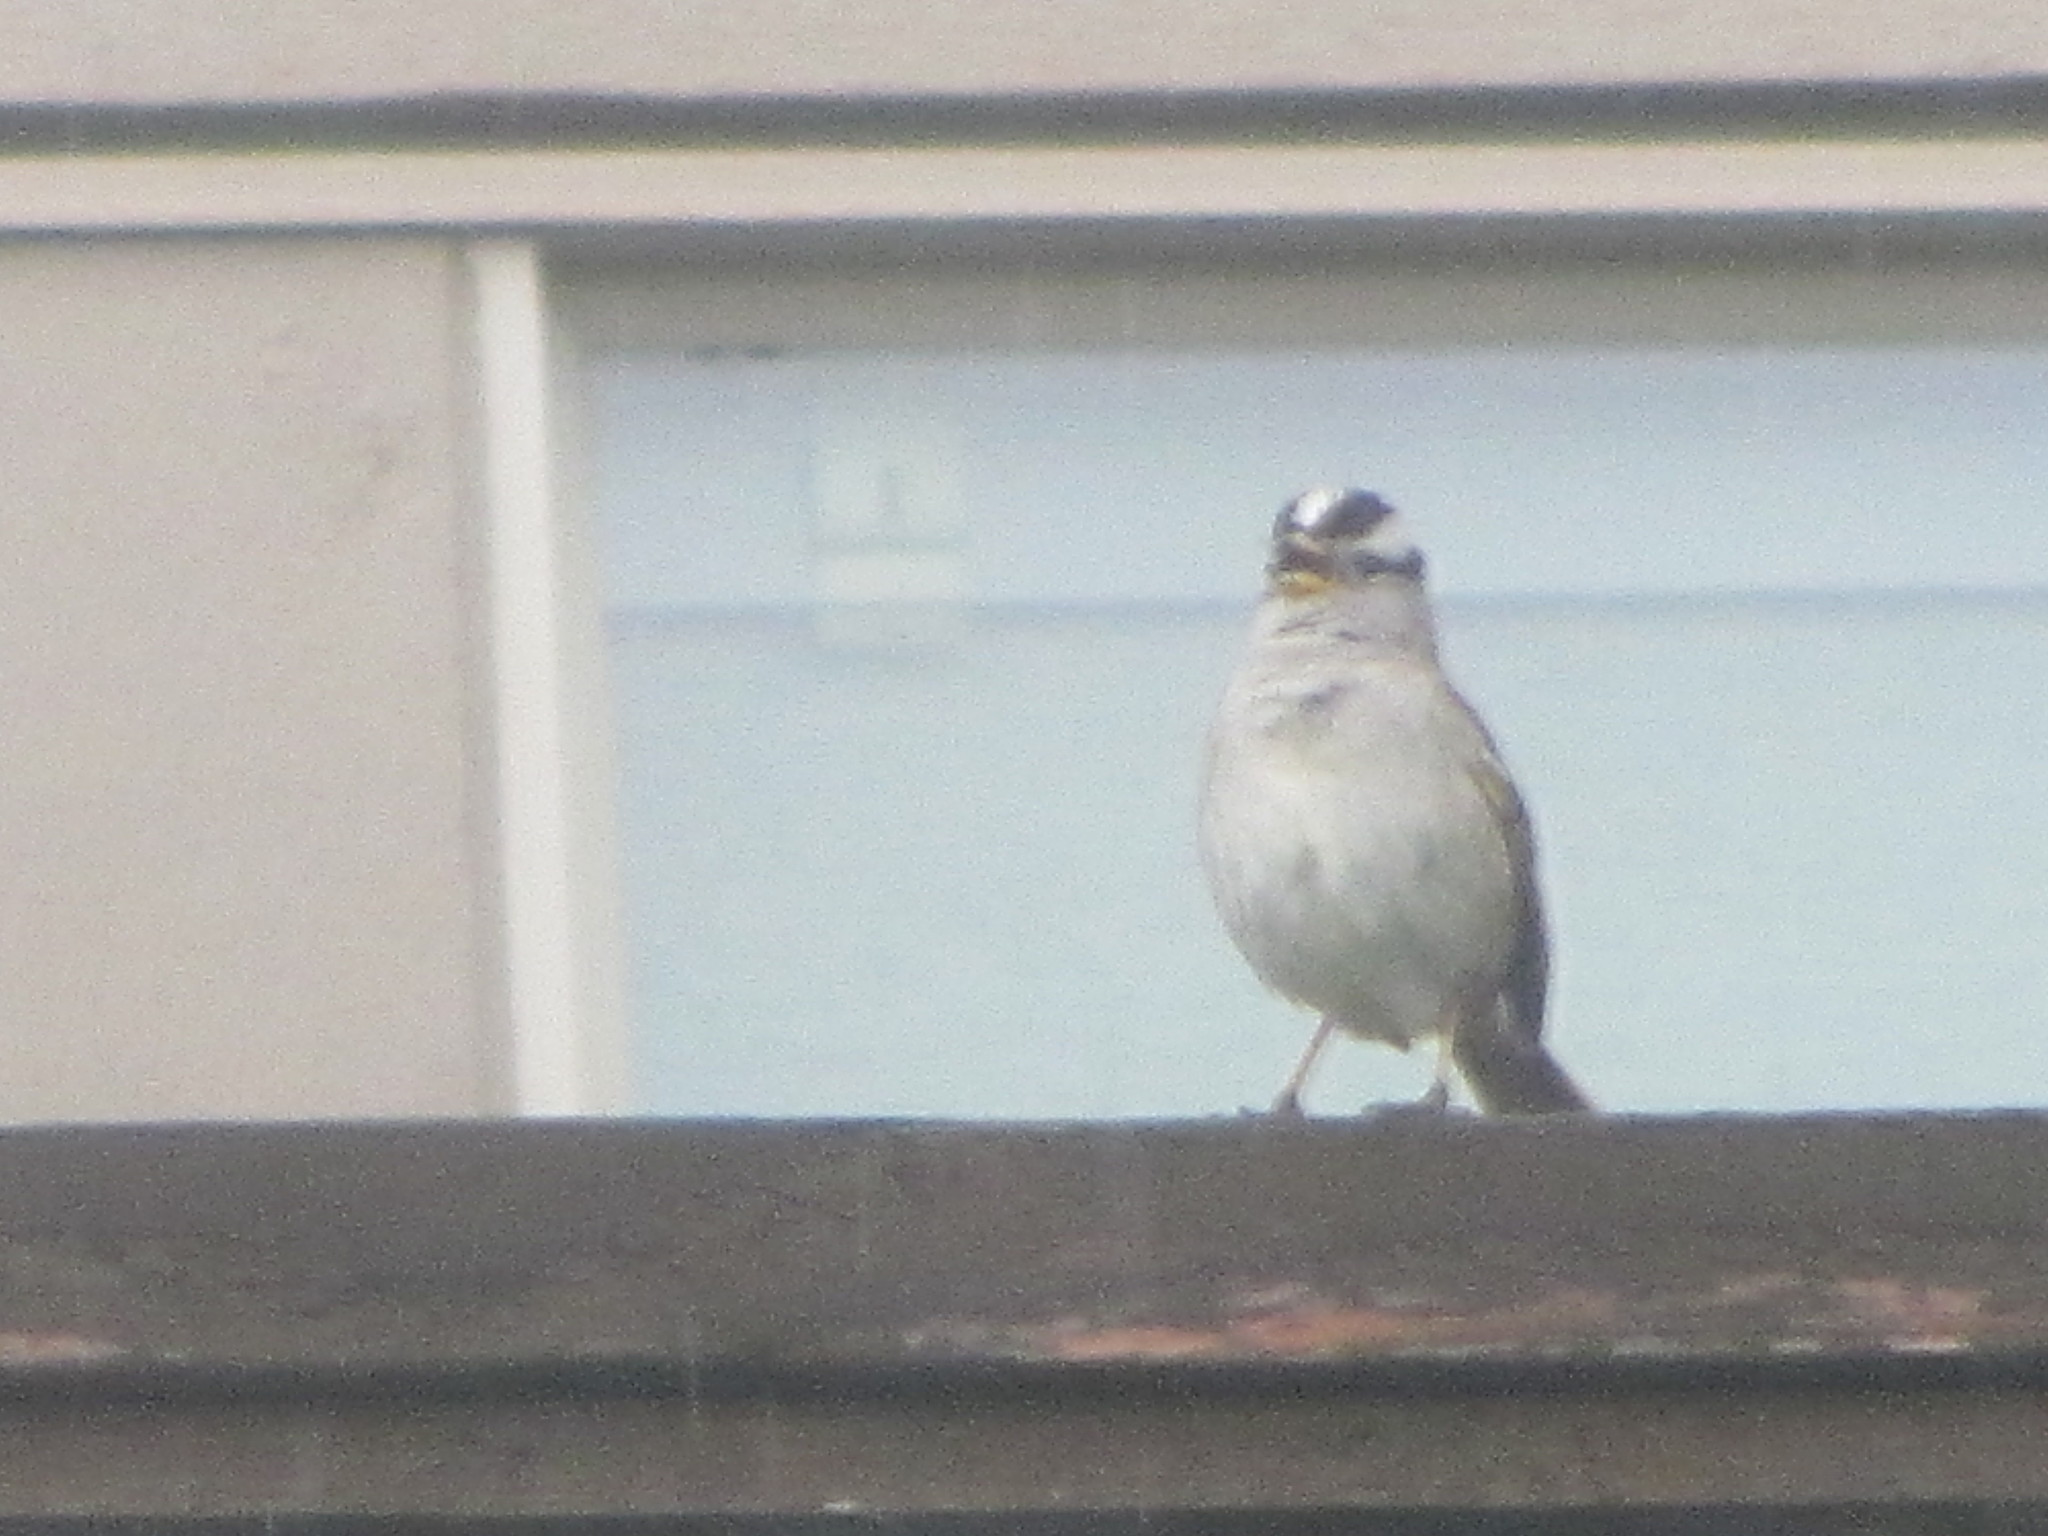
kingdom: Animalia
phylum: Chordata
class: Aves
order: Passeriformes
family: Passerellidae
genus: Zonotrichia
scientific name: Zonotrichia leucophrys
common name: White-crowned sparrow
